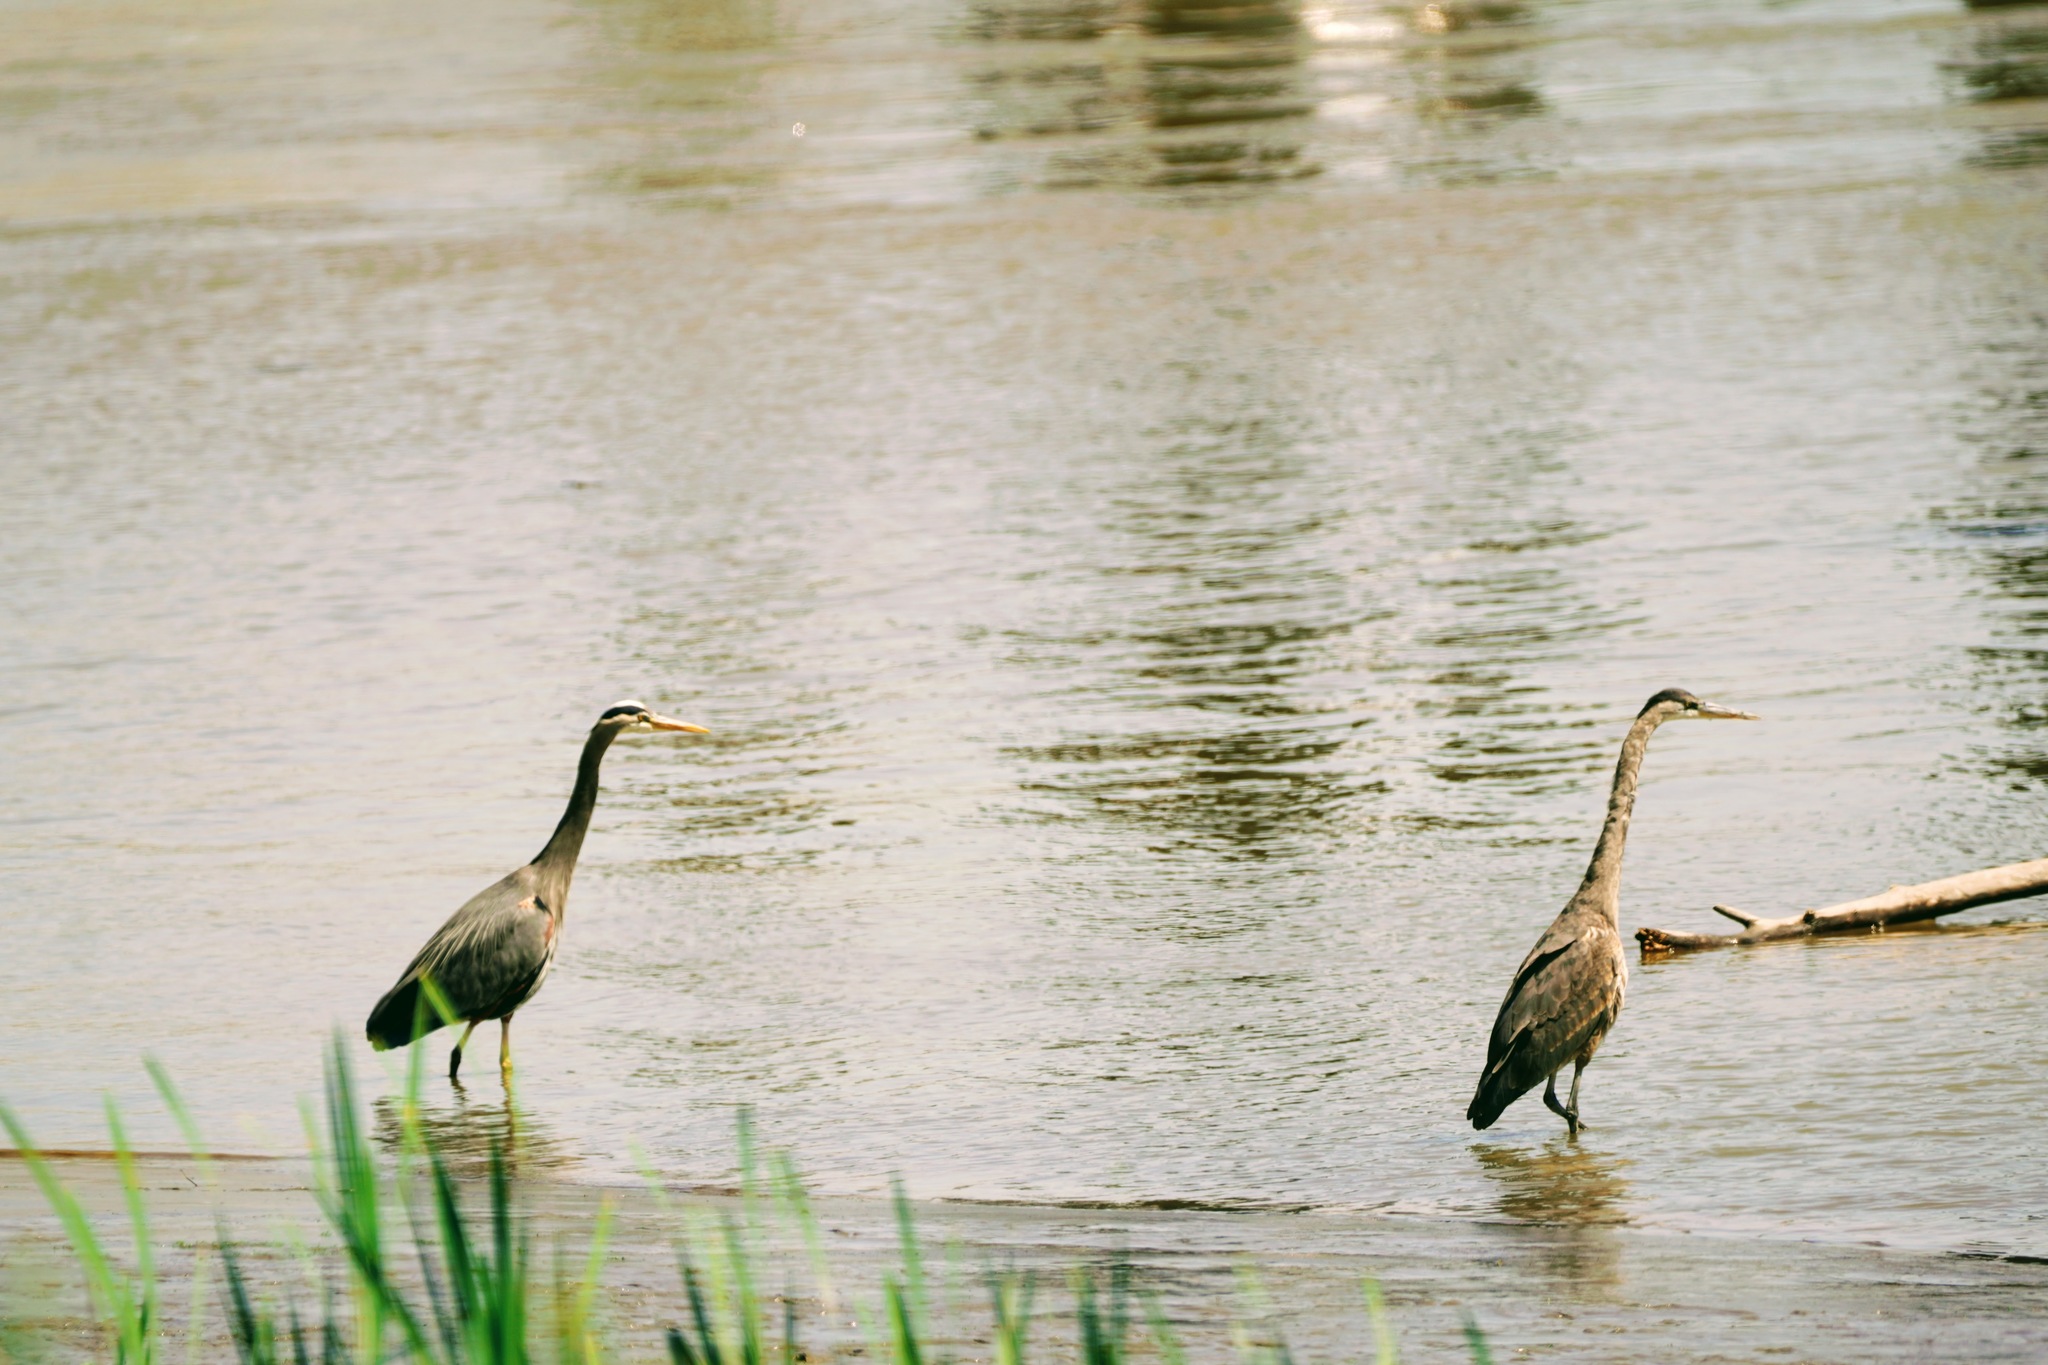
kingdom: Animalia
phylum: Chordata
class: Aves
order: Pelecaniformes
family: Ardeidae
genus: Ardea
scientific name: Ardea herodias
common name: Great blue heron
